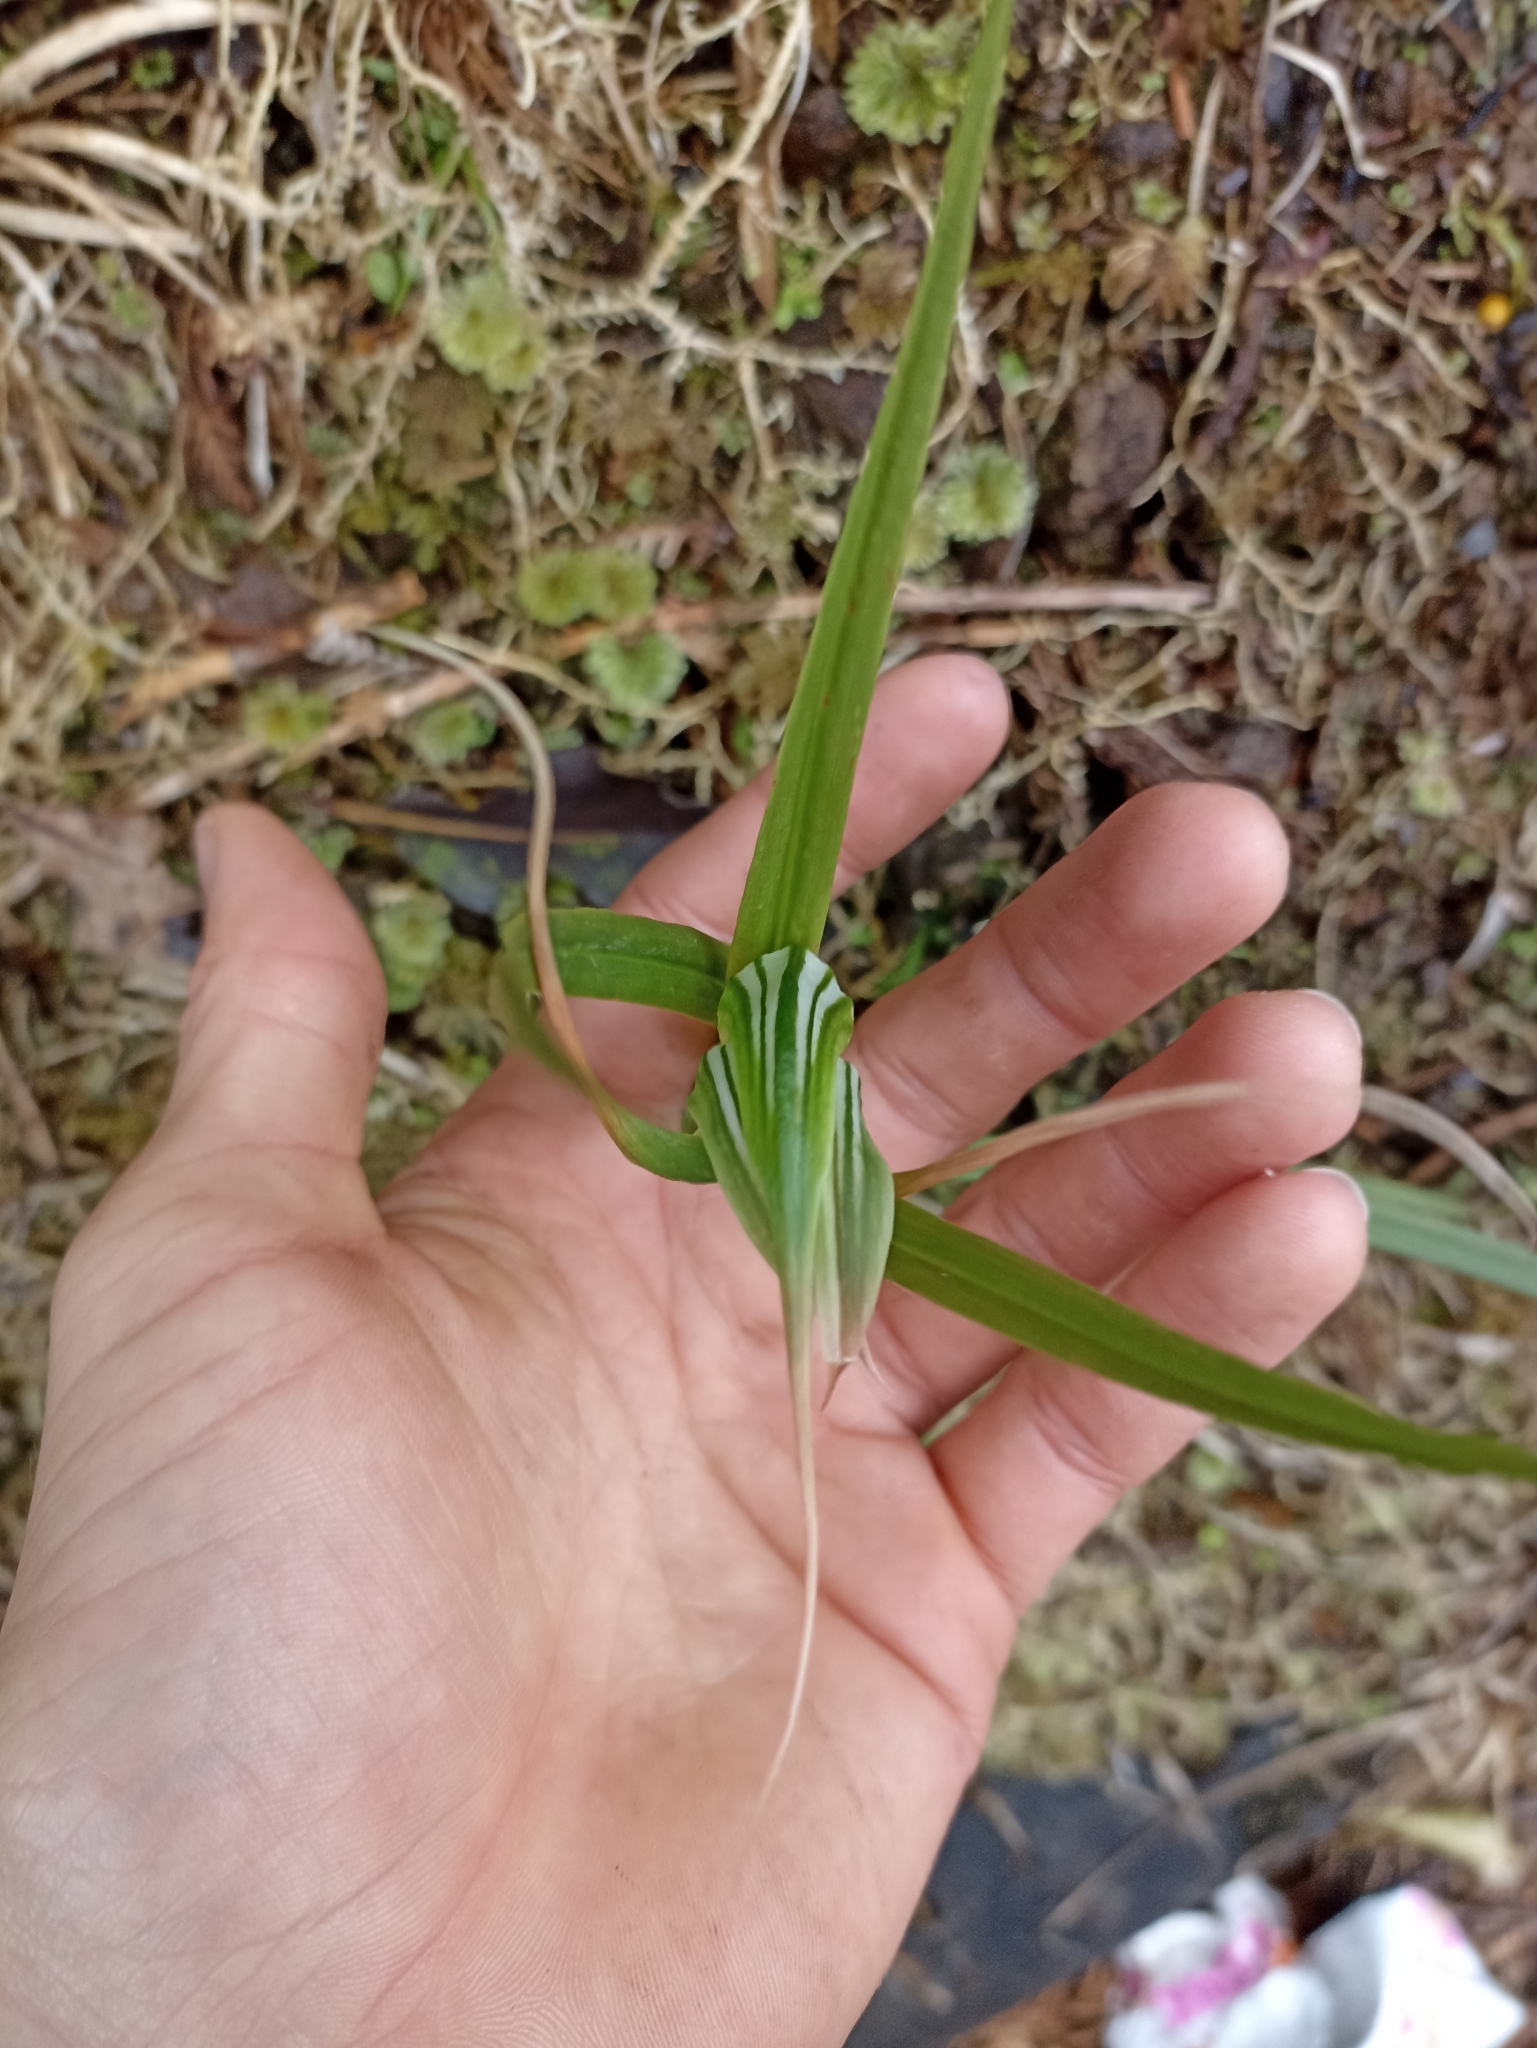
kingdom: Plantae
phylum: Tracheophyta
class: Liliopsida
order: Asparagales
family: Orchidaceae
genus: Pterostylis
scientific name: Pterostylis banksii
